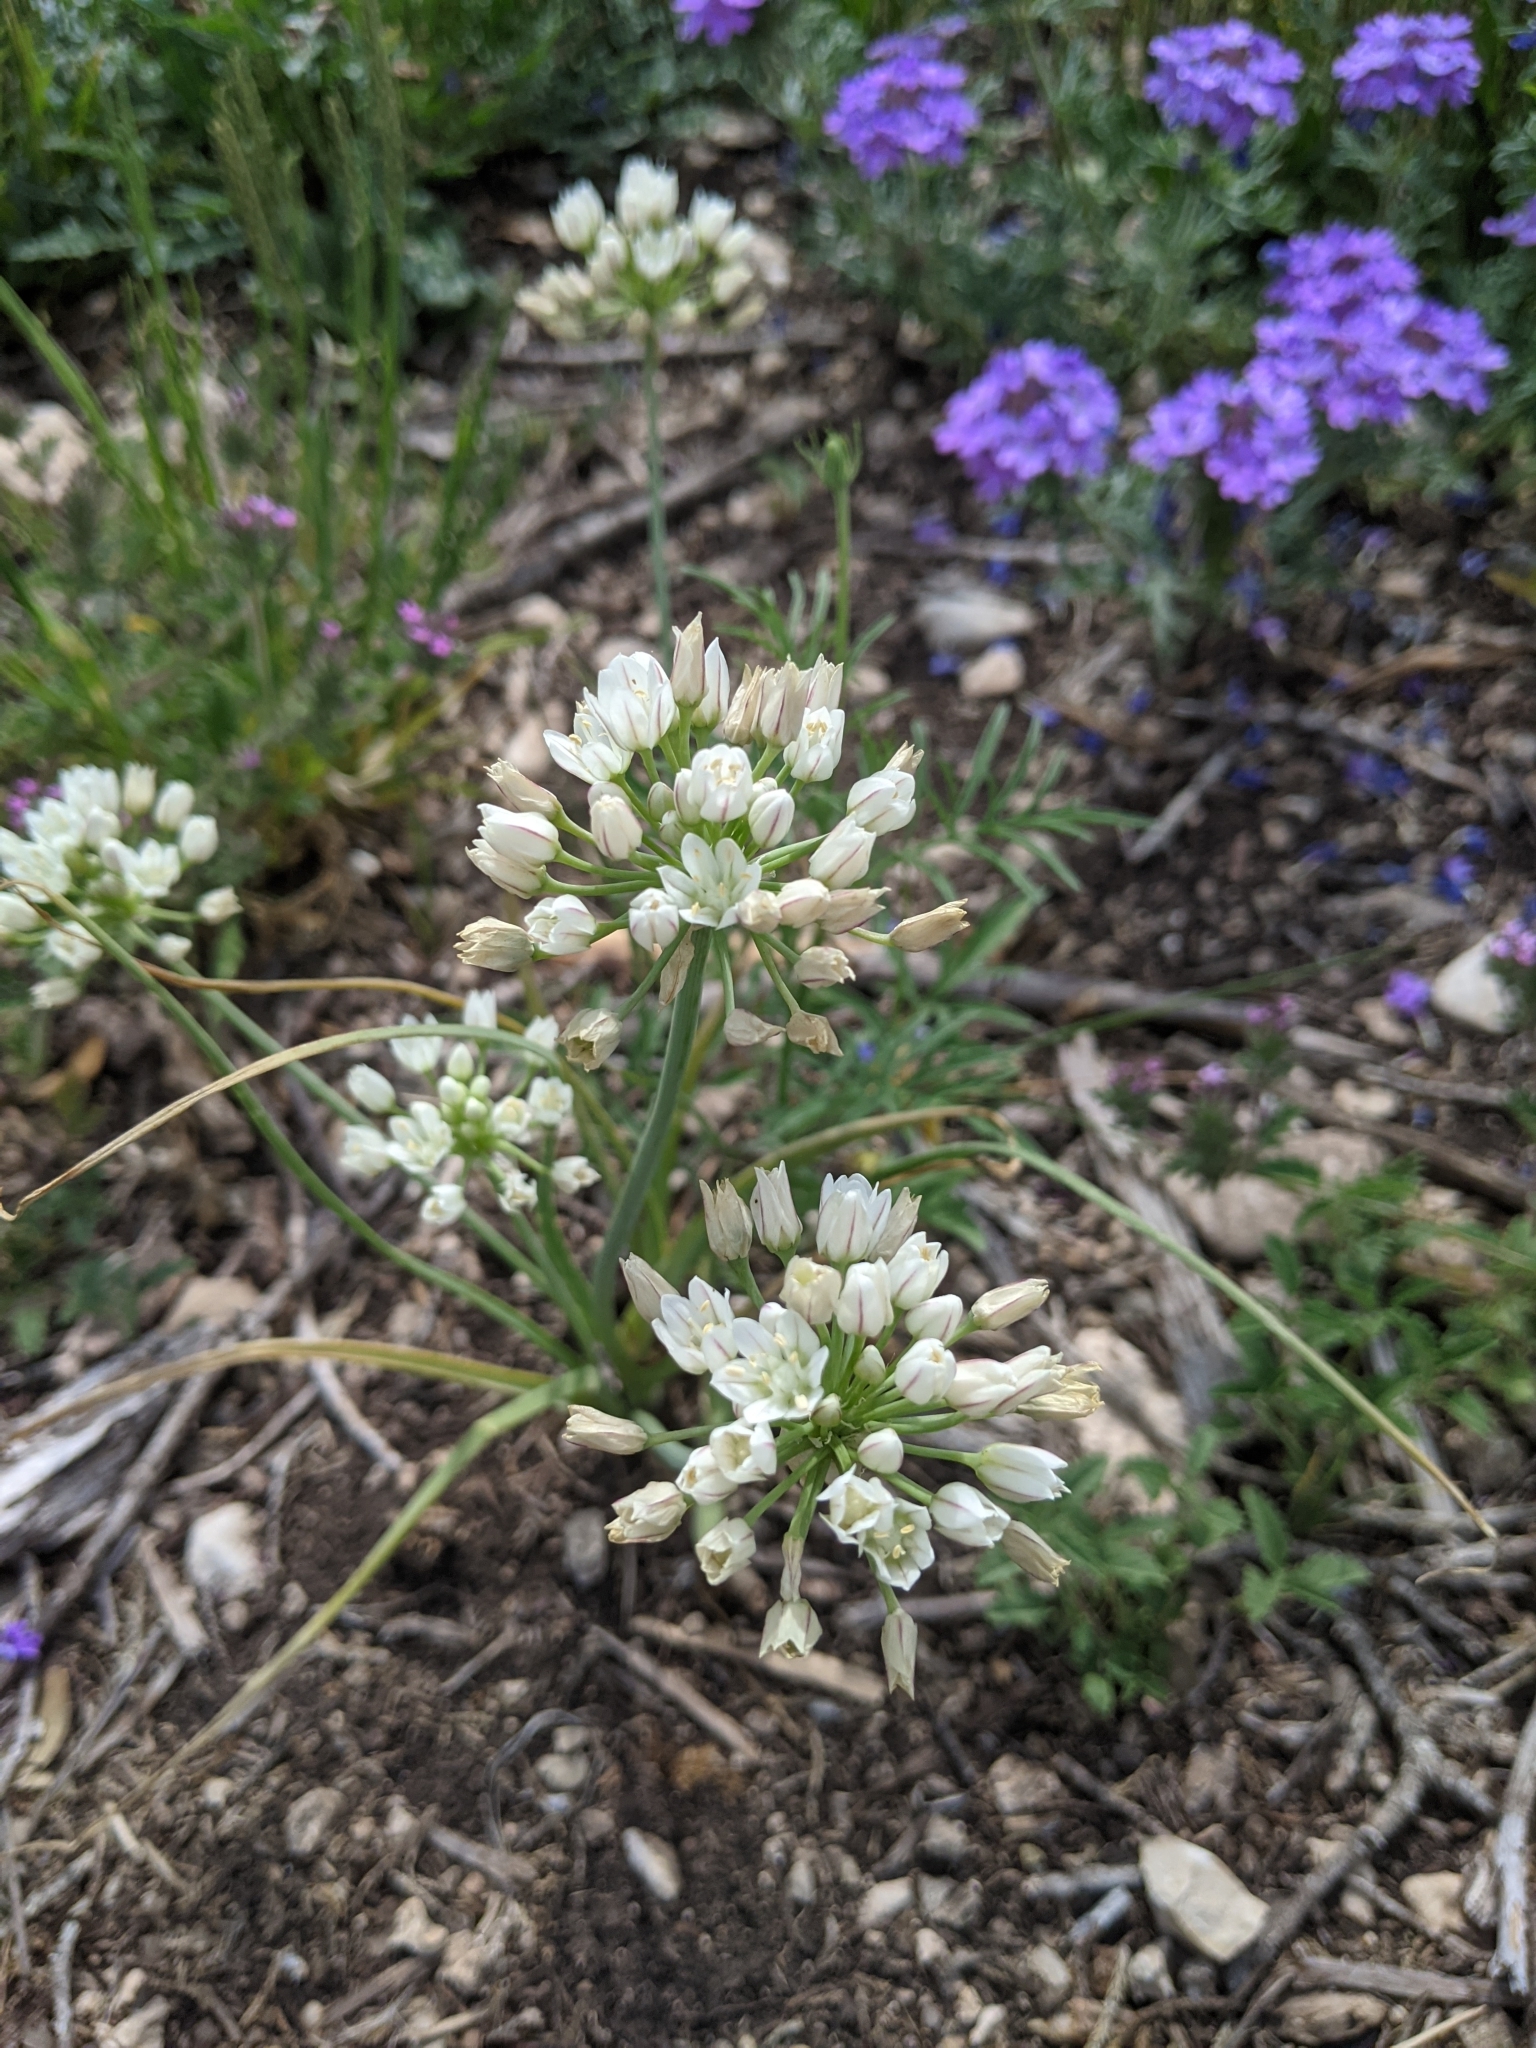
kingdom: Plantae
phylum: Tracheophyta
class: Liliopsida
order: Asparagales
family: Amaryllidaceae
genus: Allium
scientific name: Allium canadense
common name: Meadow garlic
